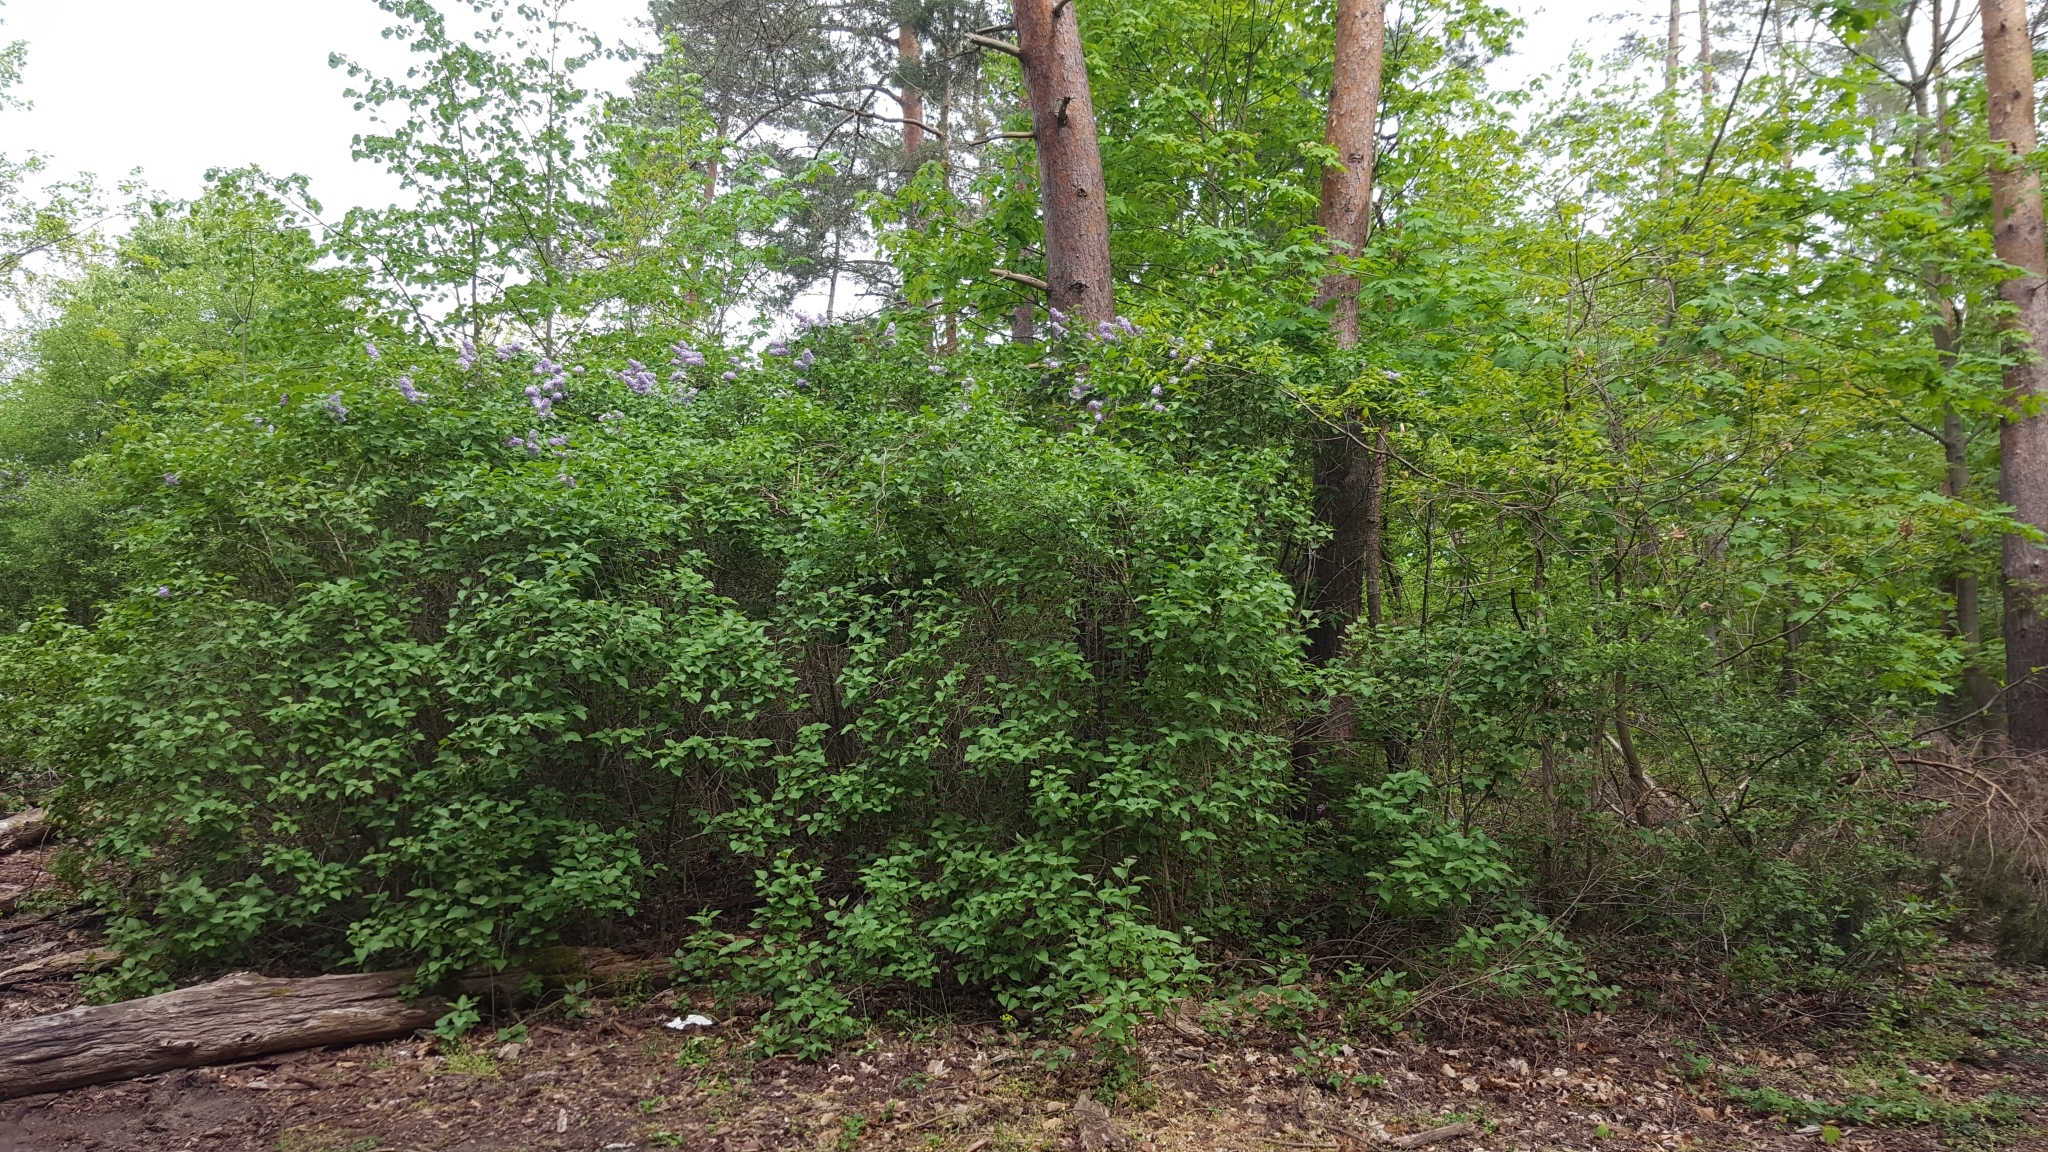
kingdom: Plantae
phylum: Tracheophyta
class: Magnoliopsida
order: Lamiales
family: Oleaceae
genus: Syringa
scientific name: Syringa vulgaris
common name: Common lilac
